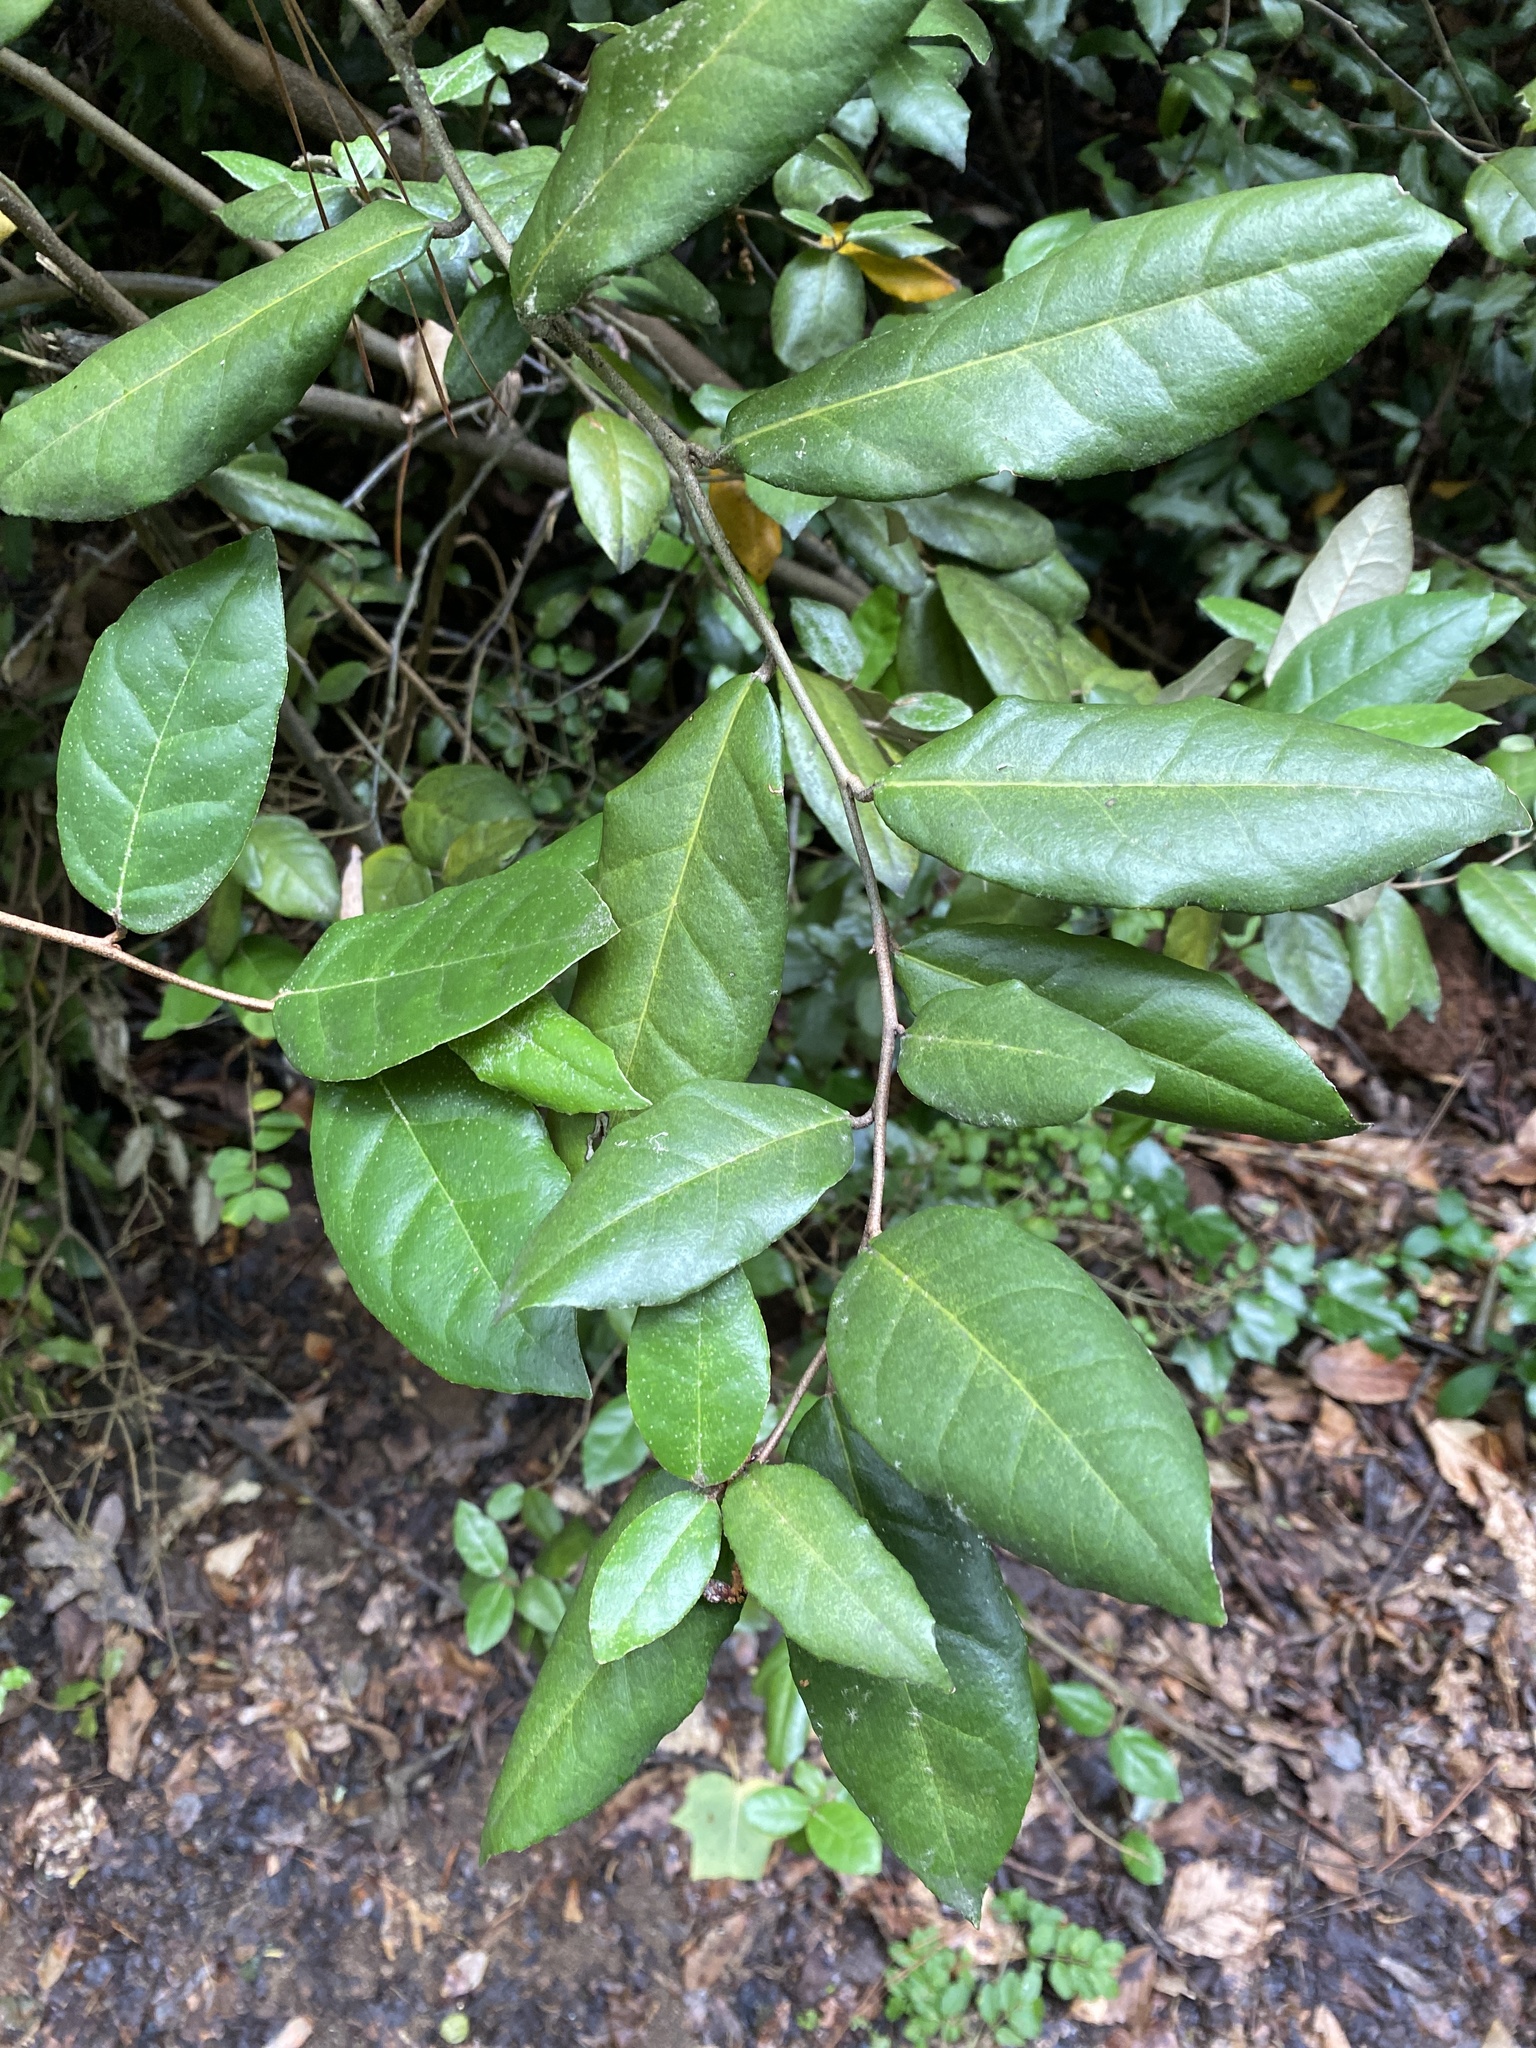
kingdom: Plantae
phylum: Tracheophyta
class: Magnoliopsida
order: Rosales
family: Elaeagnaceae
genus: Elaeagnus
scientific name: Elaeagnus pungens
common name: Spiny oleaster
